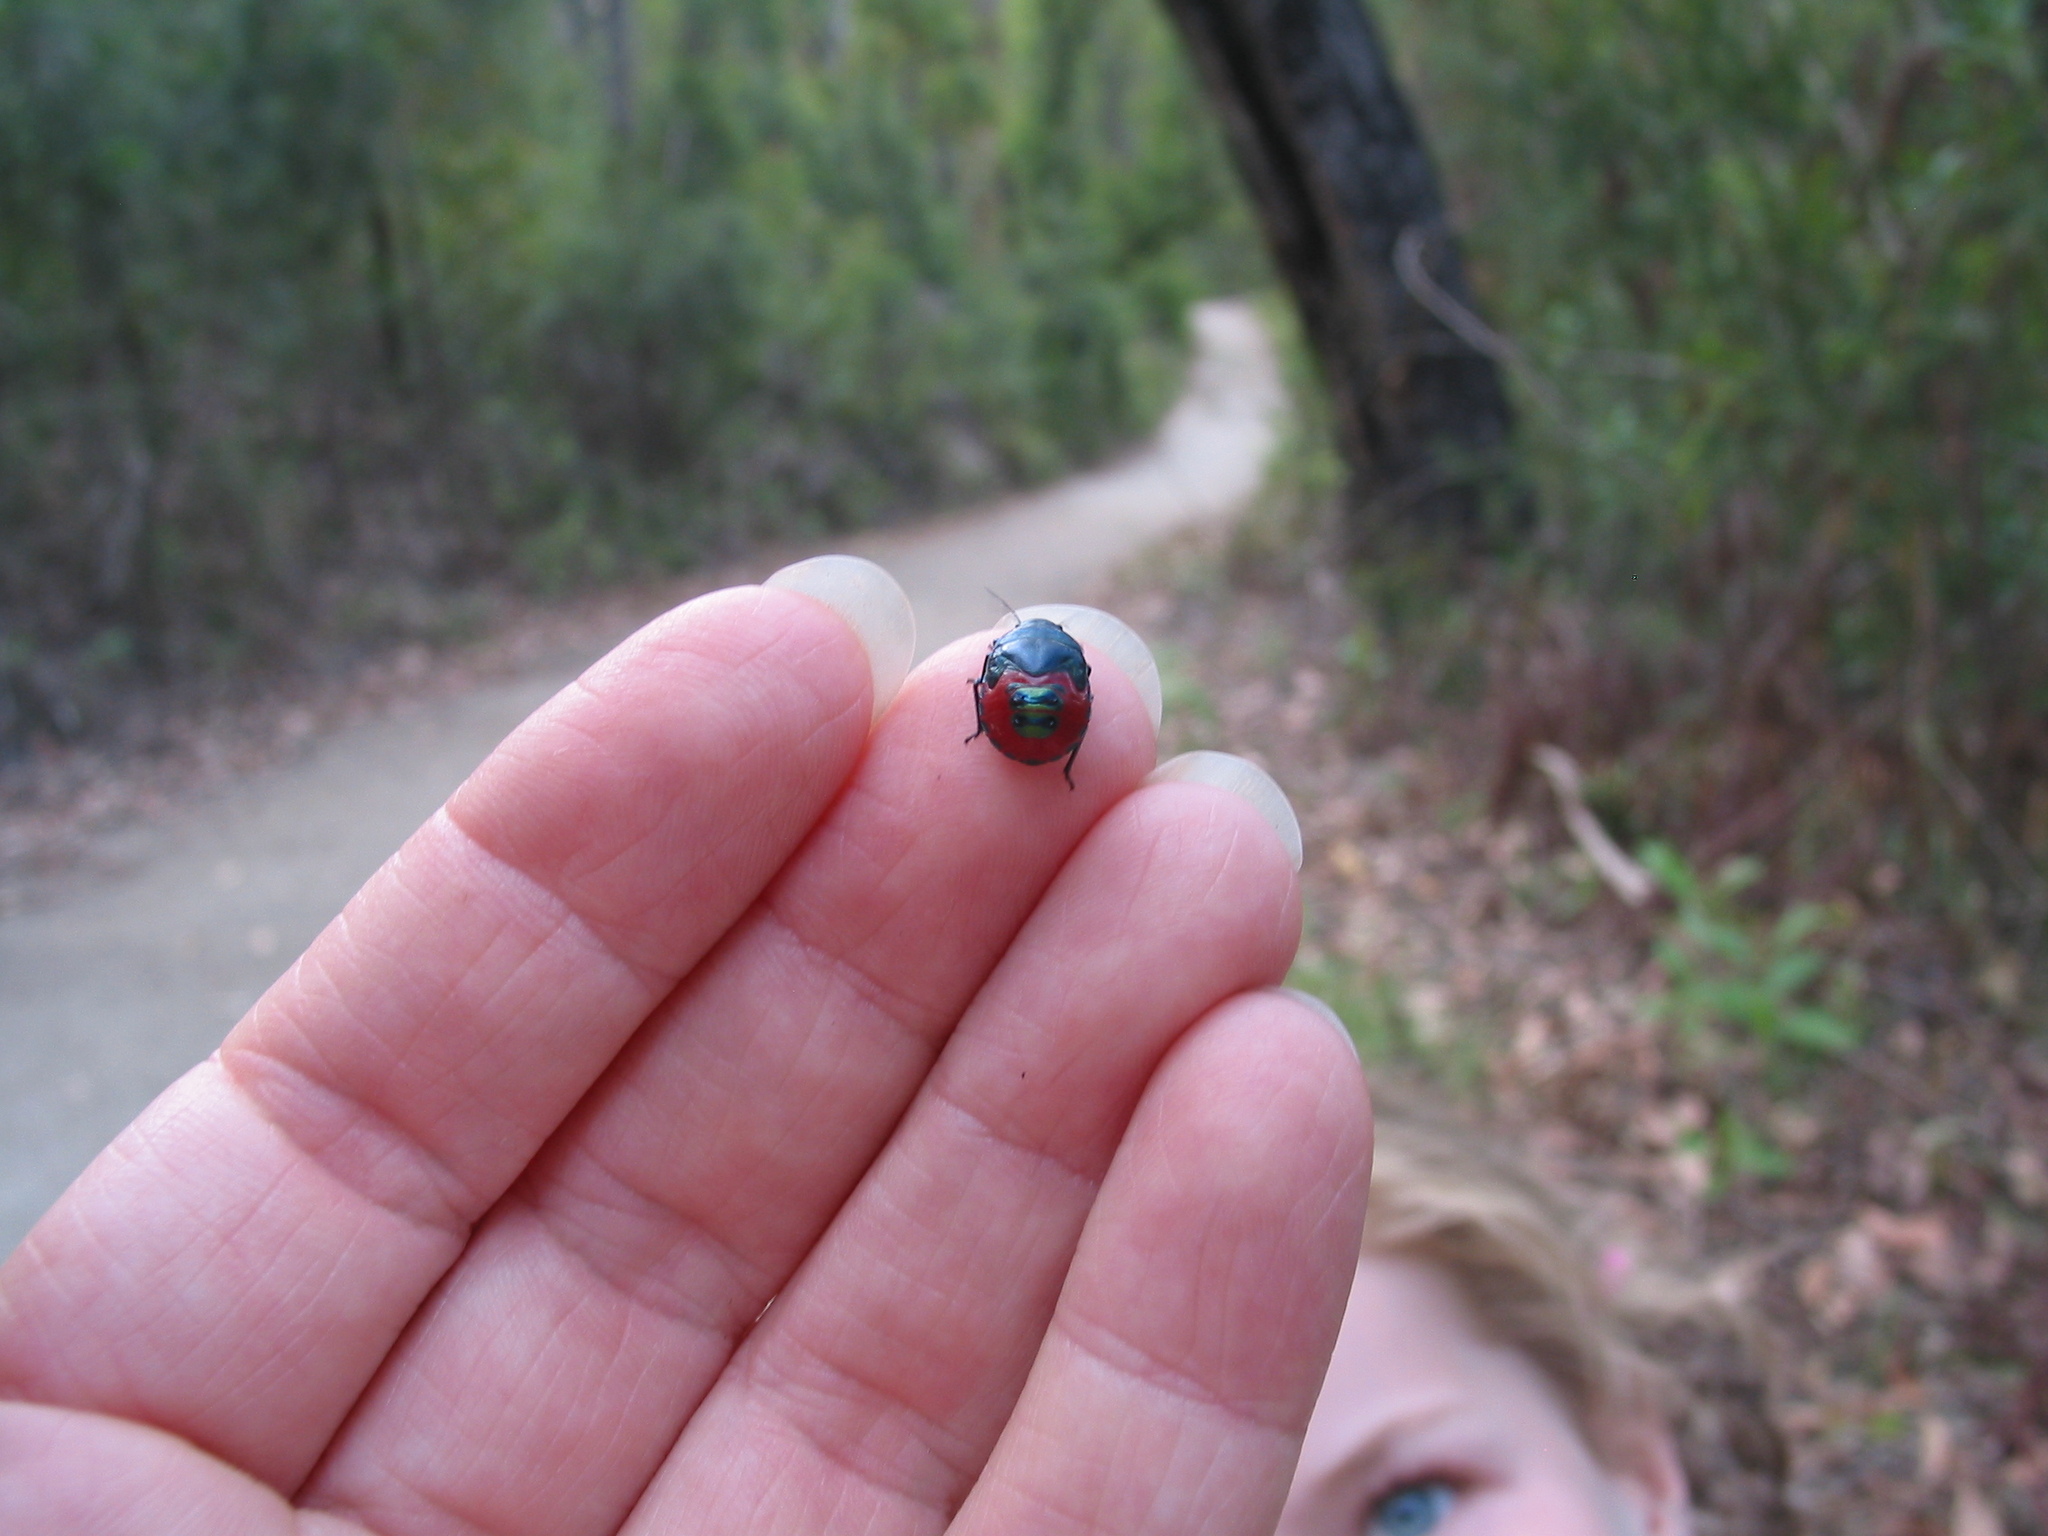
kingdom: Animalia
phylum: Arthropoda
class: Insecta
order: Hemiptera
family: Scutelleridae
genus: Choerocoris
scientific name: Choerocoris paganus
